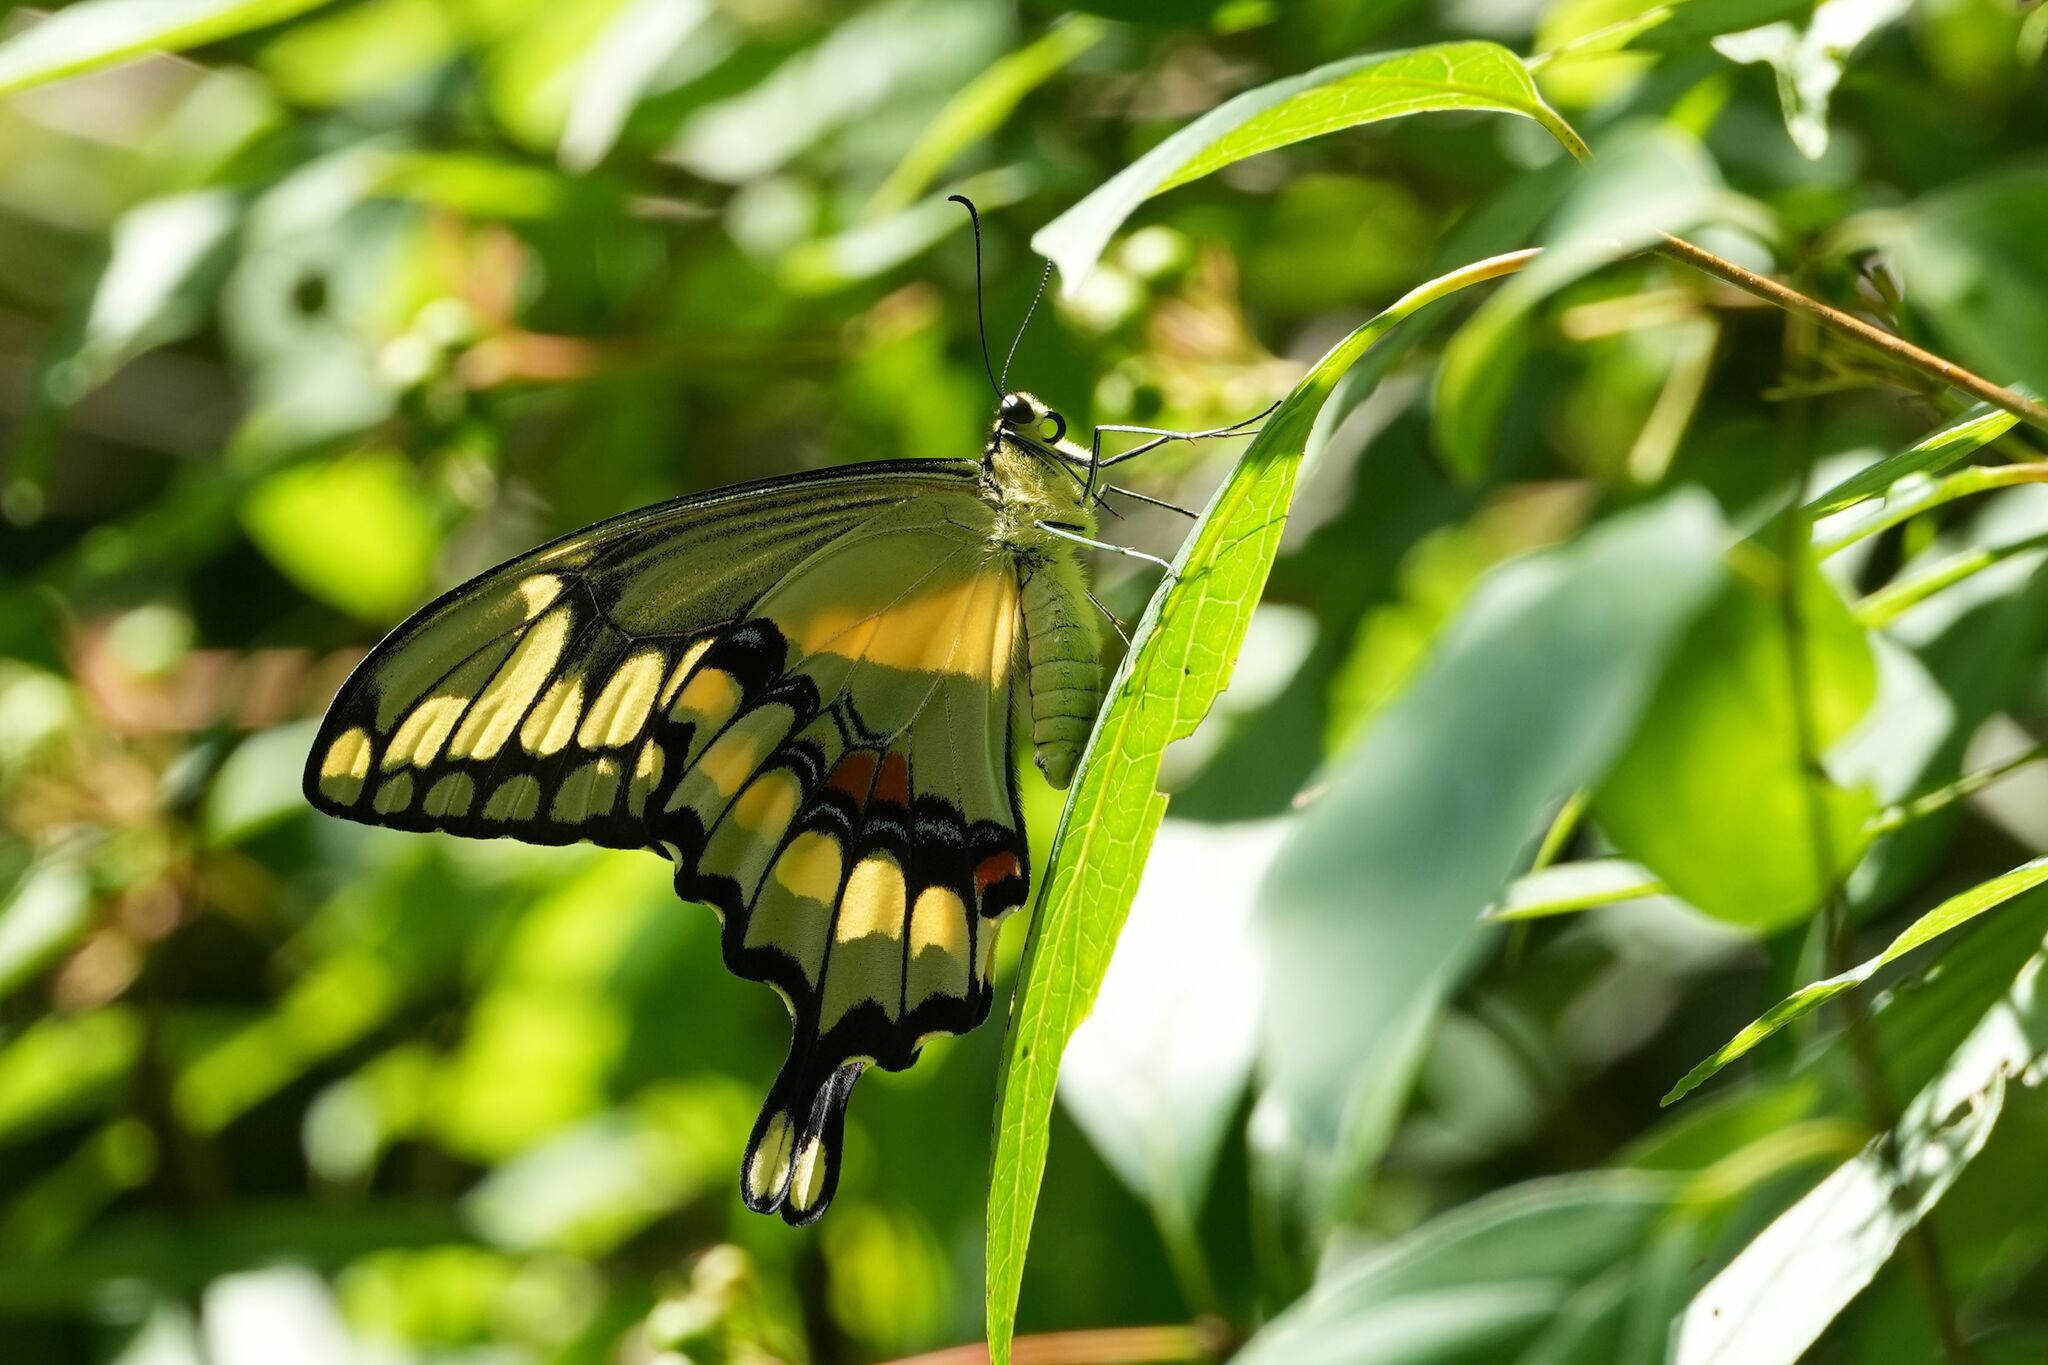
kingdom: Animalia
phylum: Arthropoda
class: Insecta
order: Lepidoptera
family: Papilionidae
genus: Papilio
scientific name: Papilio cresphontes
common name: Giant swallowtail
